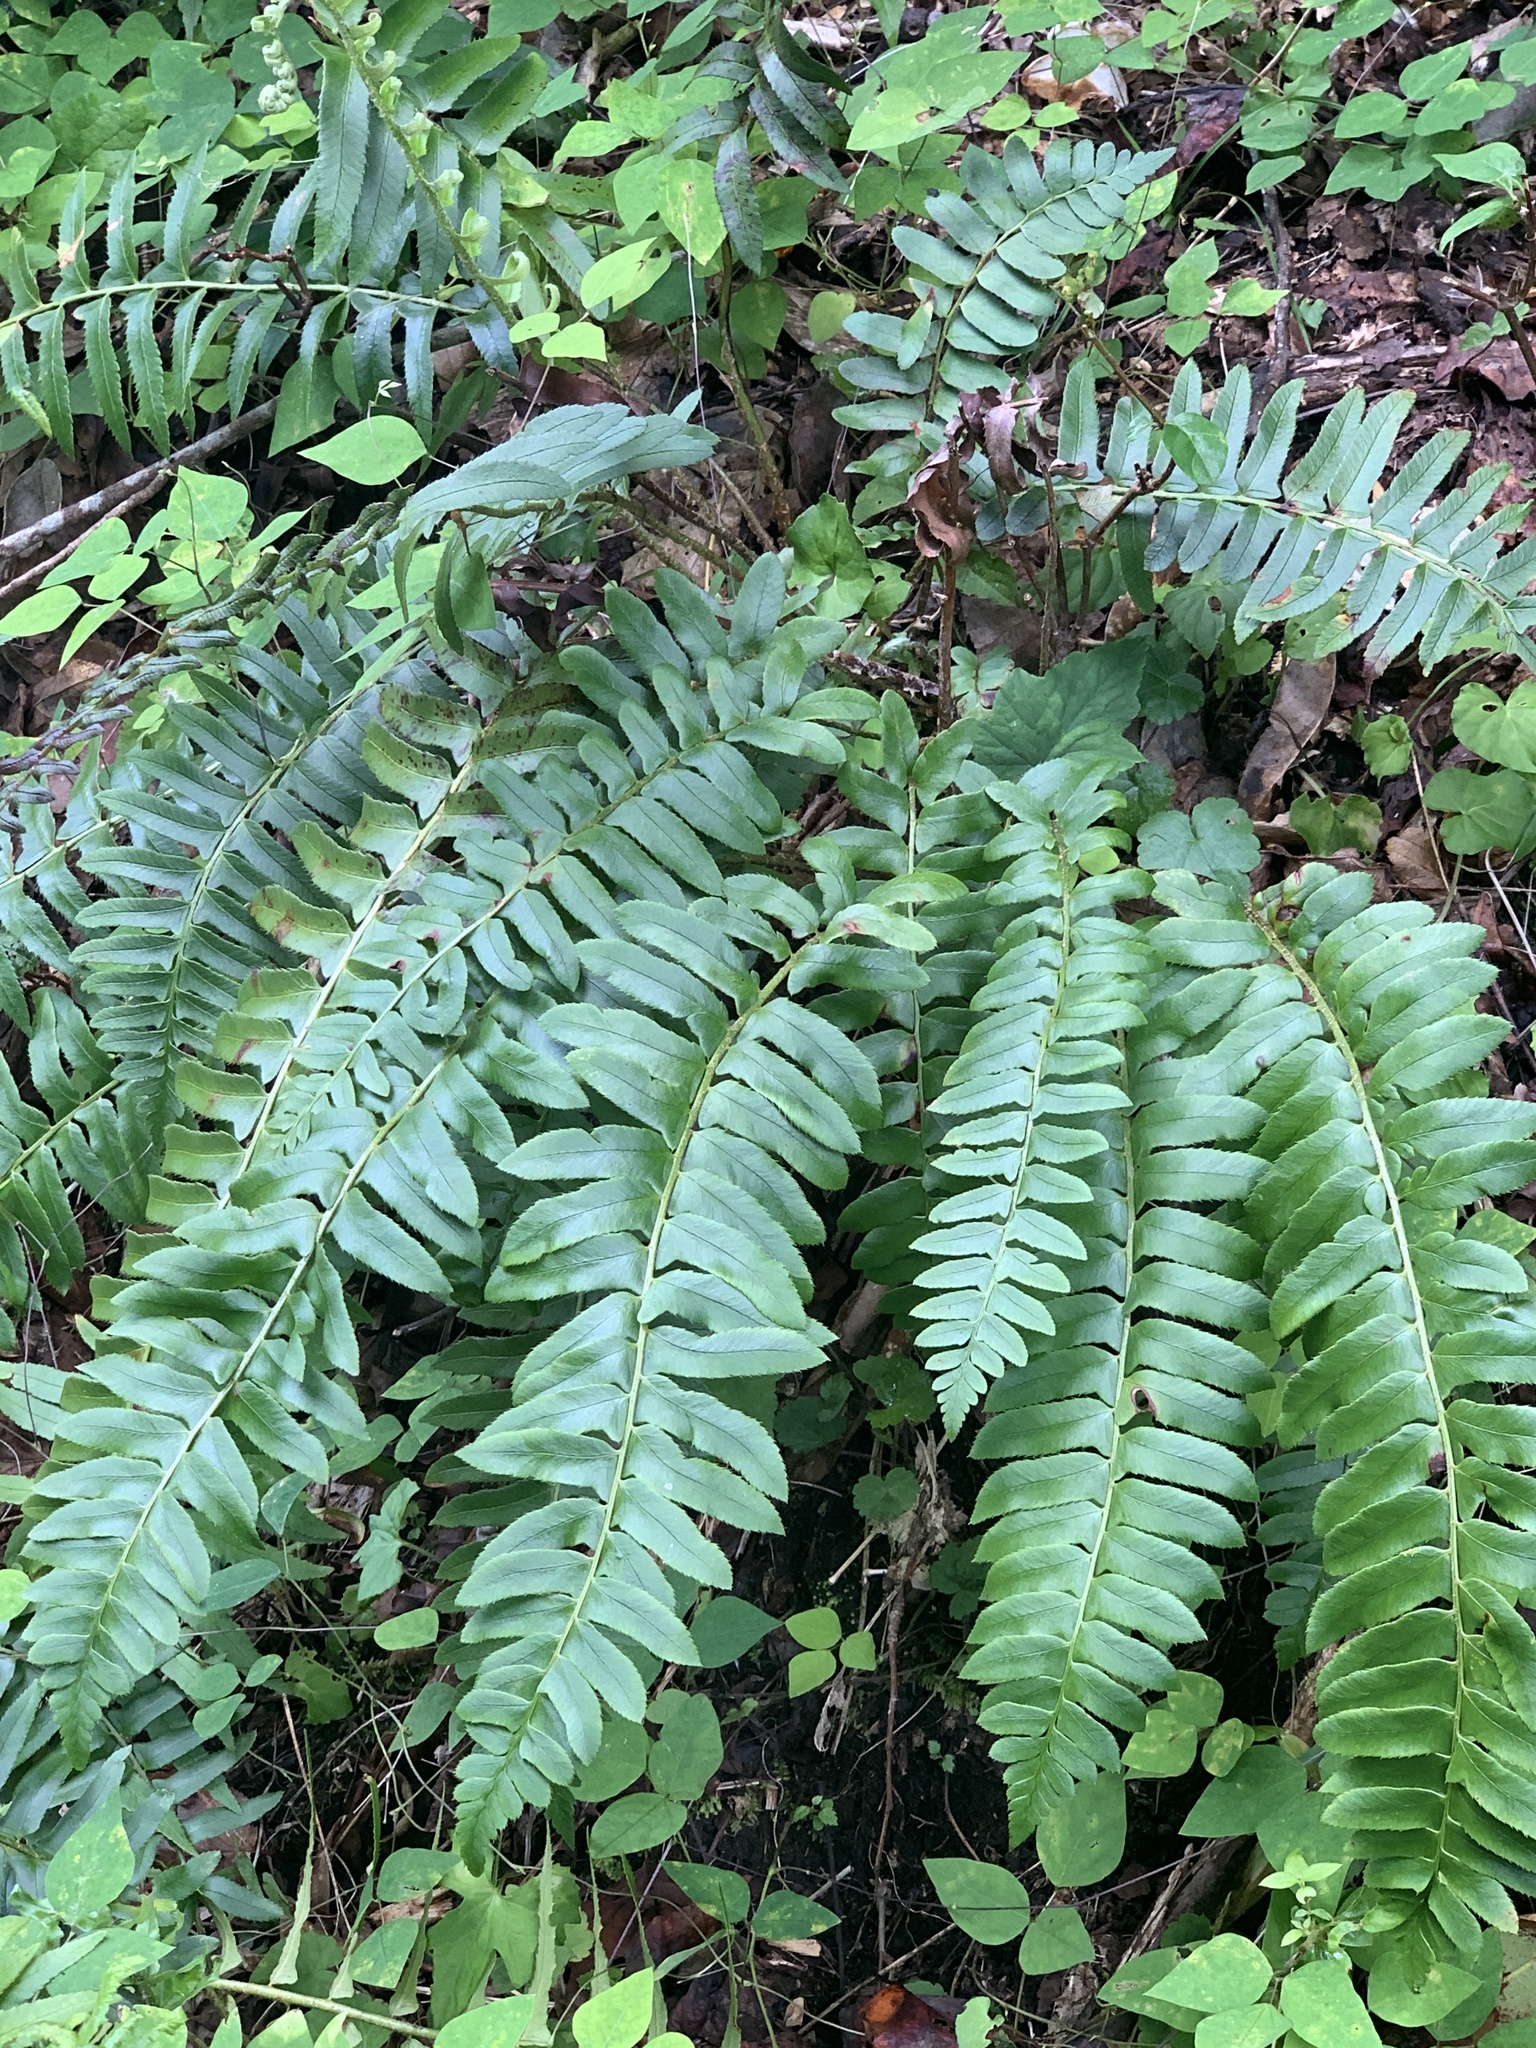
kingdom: Plantae
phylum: Tracheophyta
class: Polypodiopsida
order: Polypodiales
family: Dryopteridaceae
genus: Polystichum
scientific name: Polystichum acrostichoides
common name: Christmas fern
